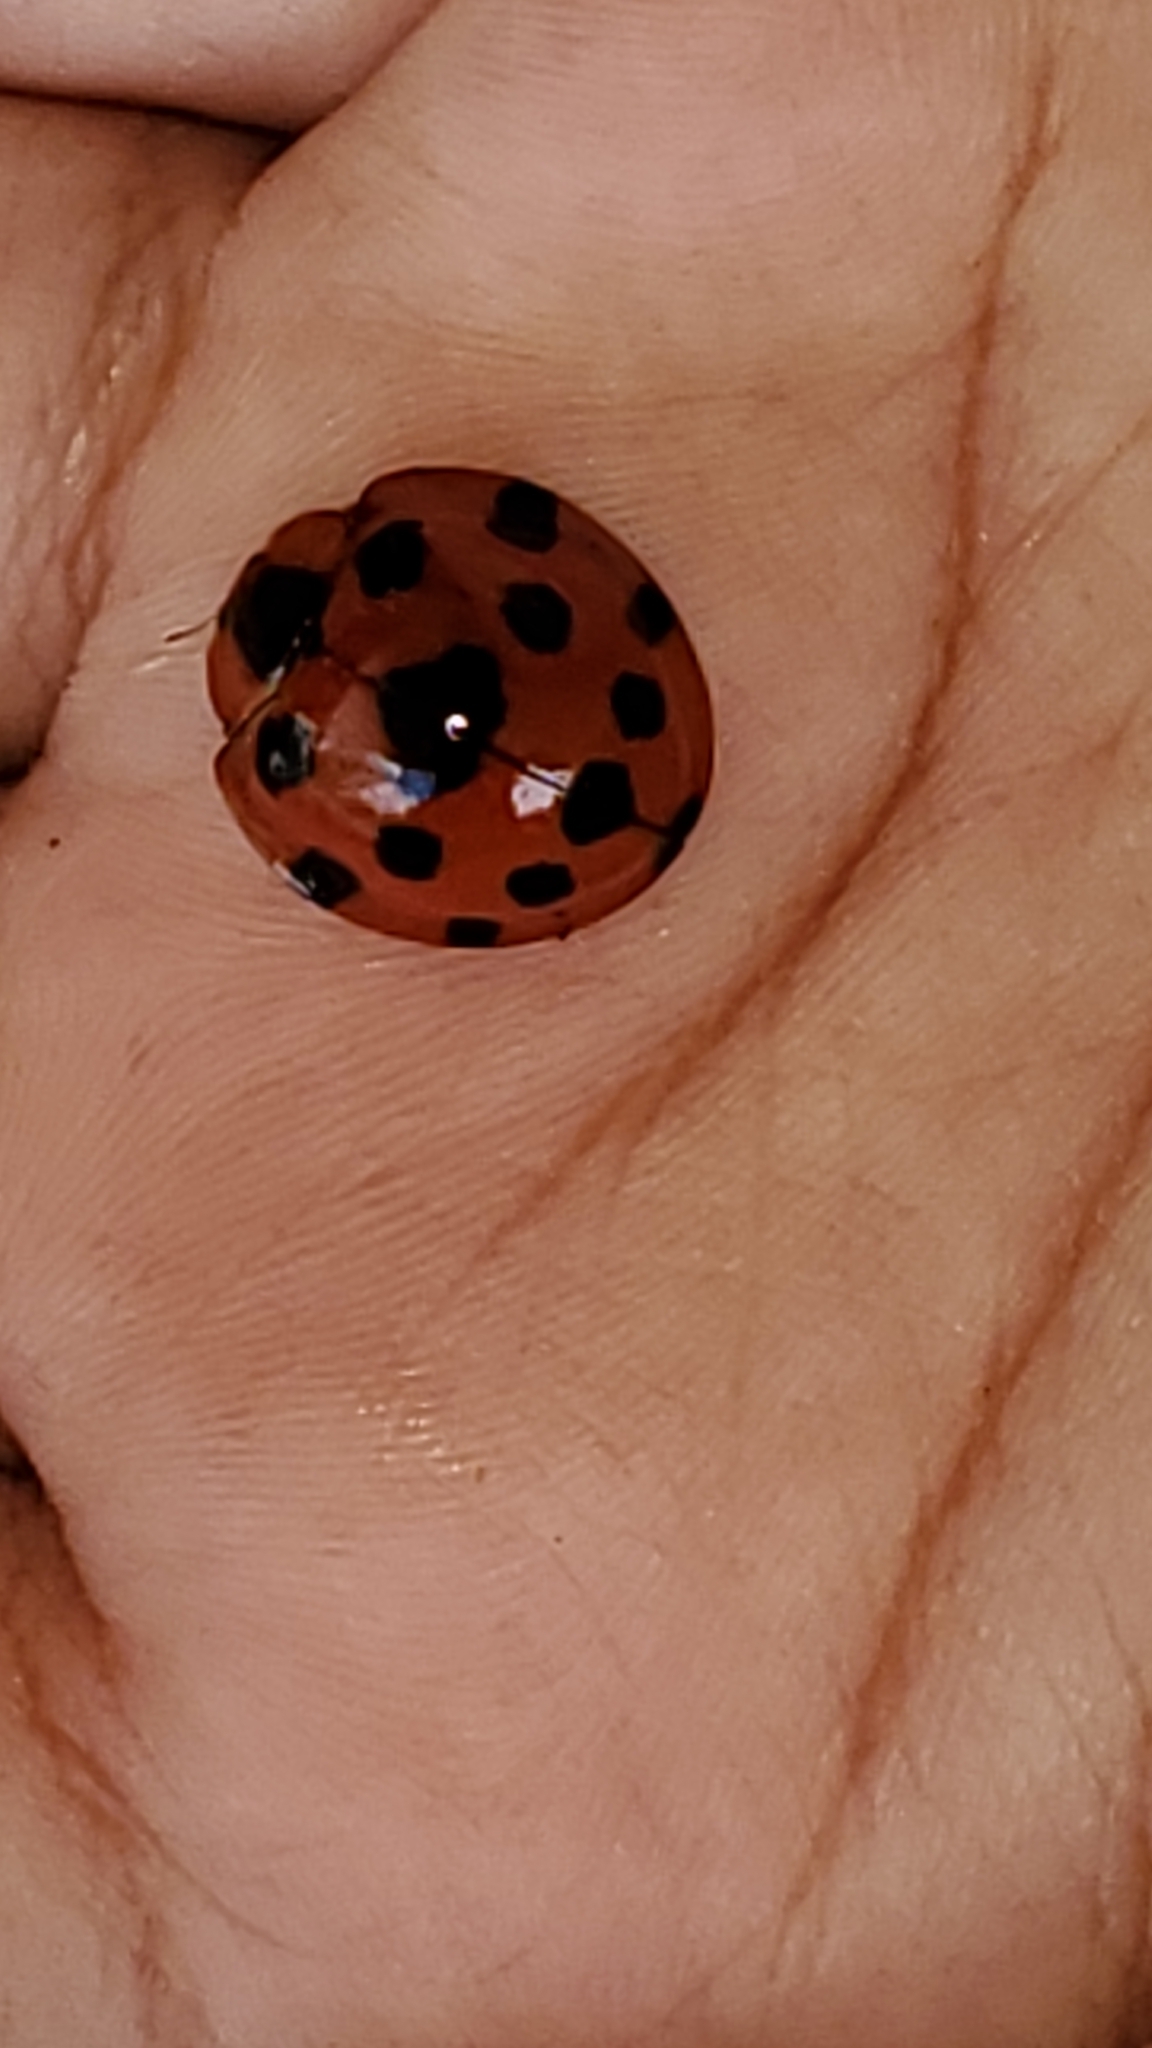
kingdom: Animalia
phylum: Arthropoda
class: Insecta
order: Coleoptera
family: Coccinellidae
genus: Synonycha
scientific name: Synonycha grandis
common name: Lady beetle
